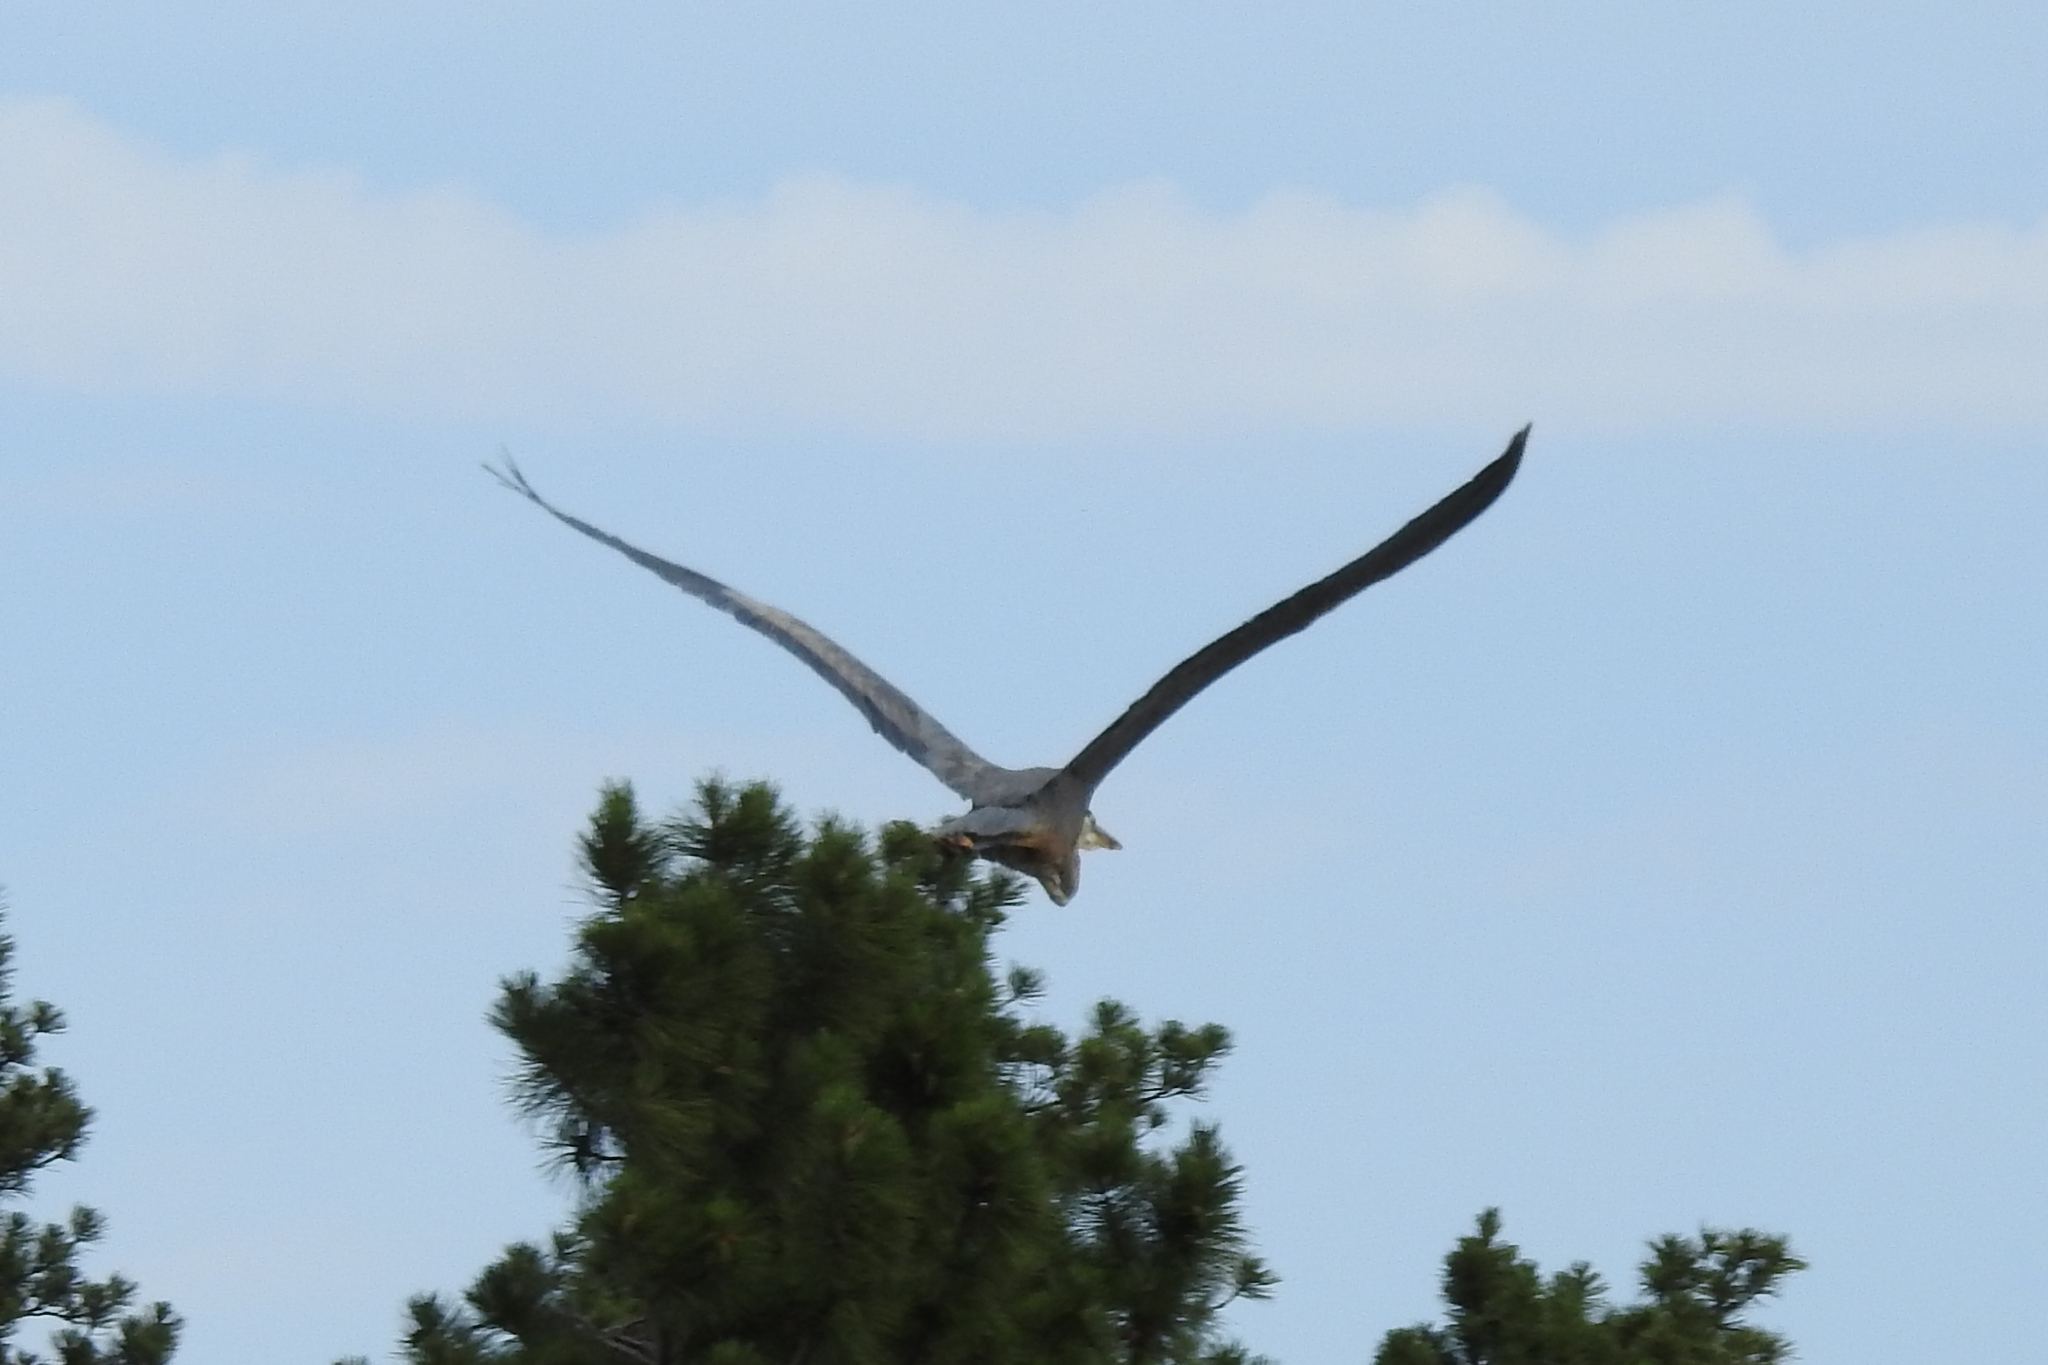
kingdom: Animalia
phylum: Chordata
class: Aves
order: Pelecaniformes
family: Ardeidae
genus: Ardea
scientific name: Ardea herodias
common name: Great blue heron
